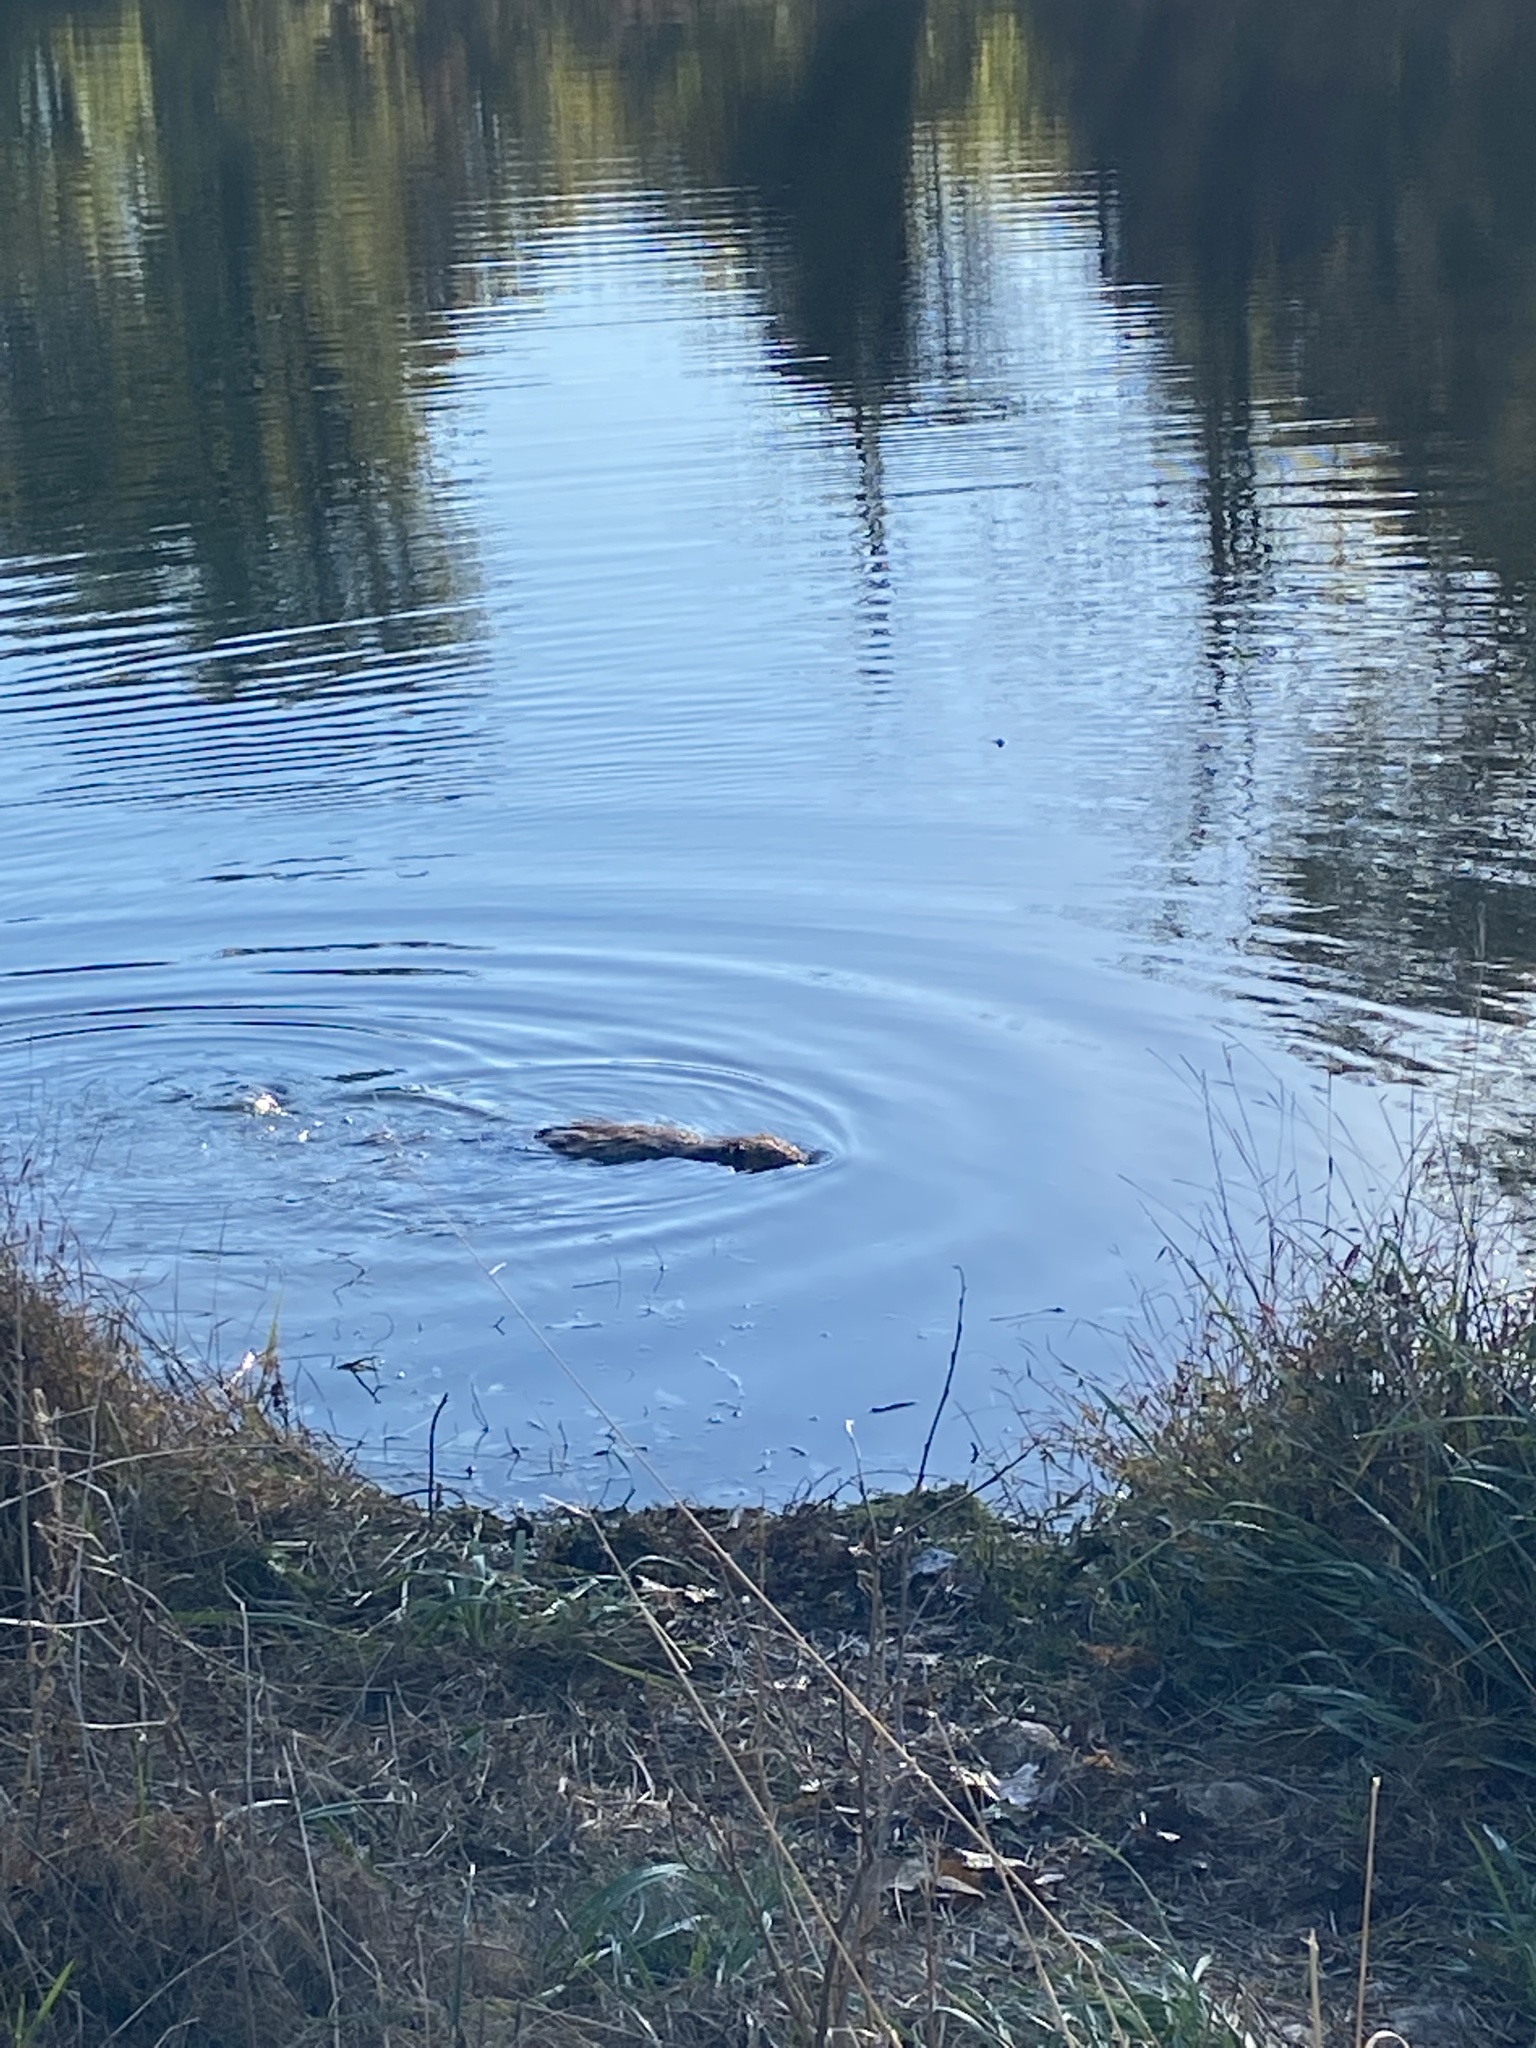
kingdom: Animalia
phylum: Chordata
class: Mammalia
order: Rodentia
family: Castoridae
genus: Castor
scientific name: Castor canadensis
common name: American beaver
